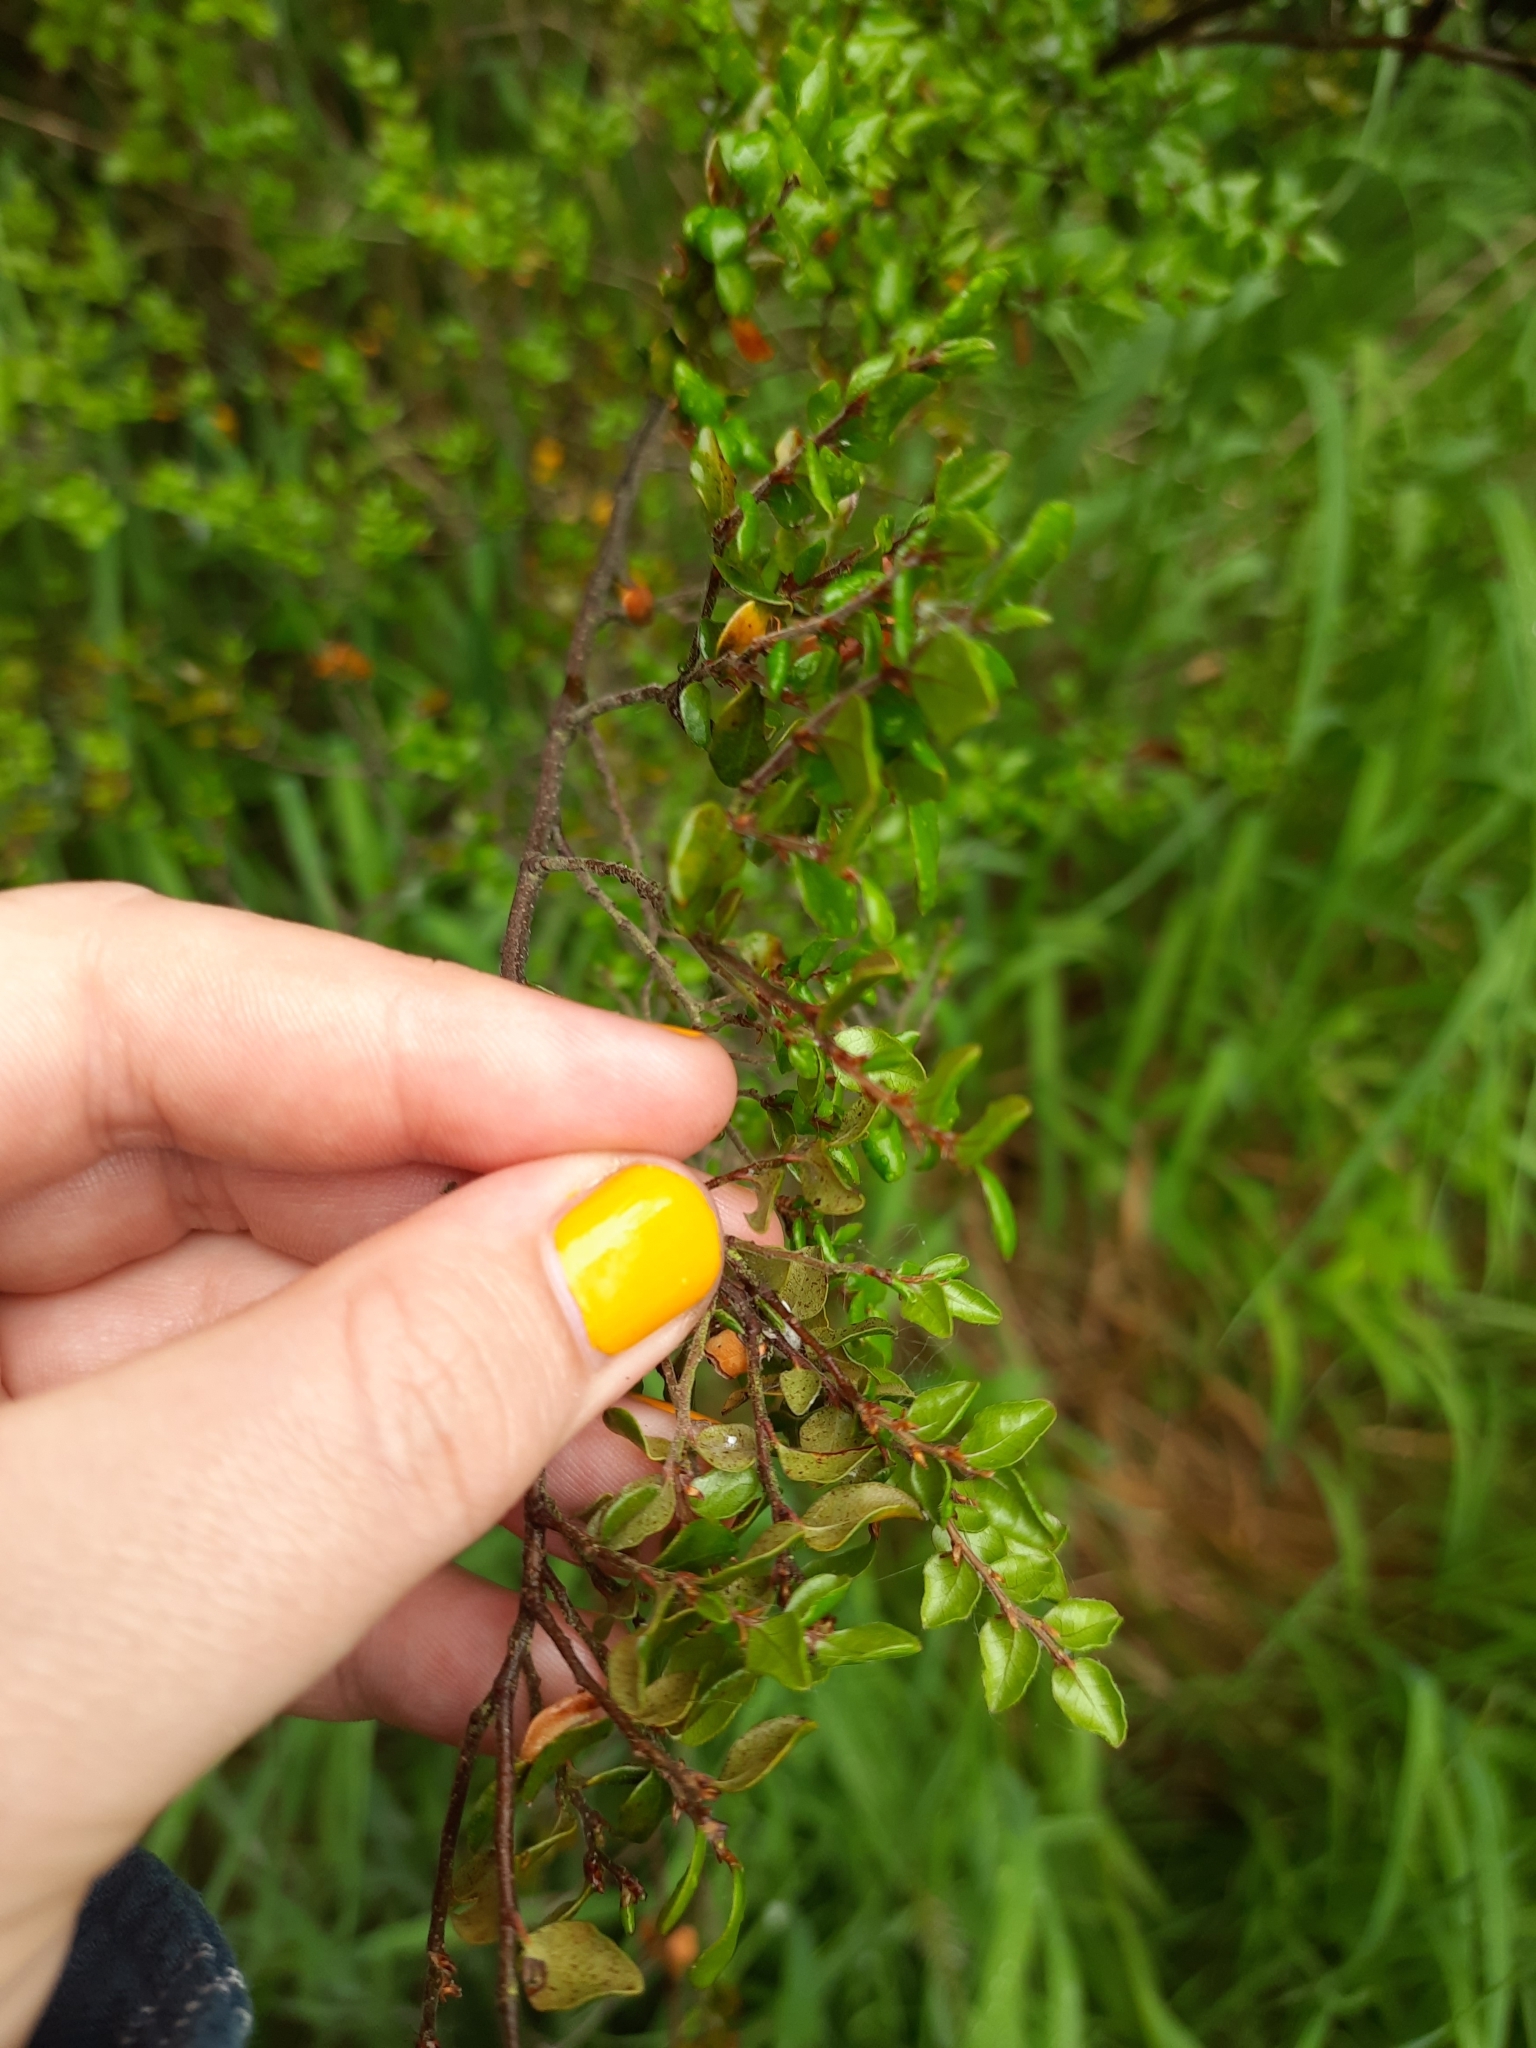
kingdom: Plantae
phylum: Tracheophyta
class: Magnoliopsida
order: Fagales
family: Nothofagaceae
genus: Nothofagus
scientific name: Nothofagus cliffortioides
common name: Mountain beech
